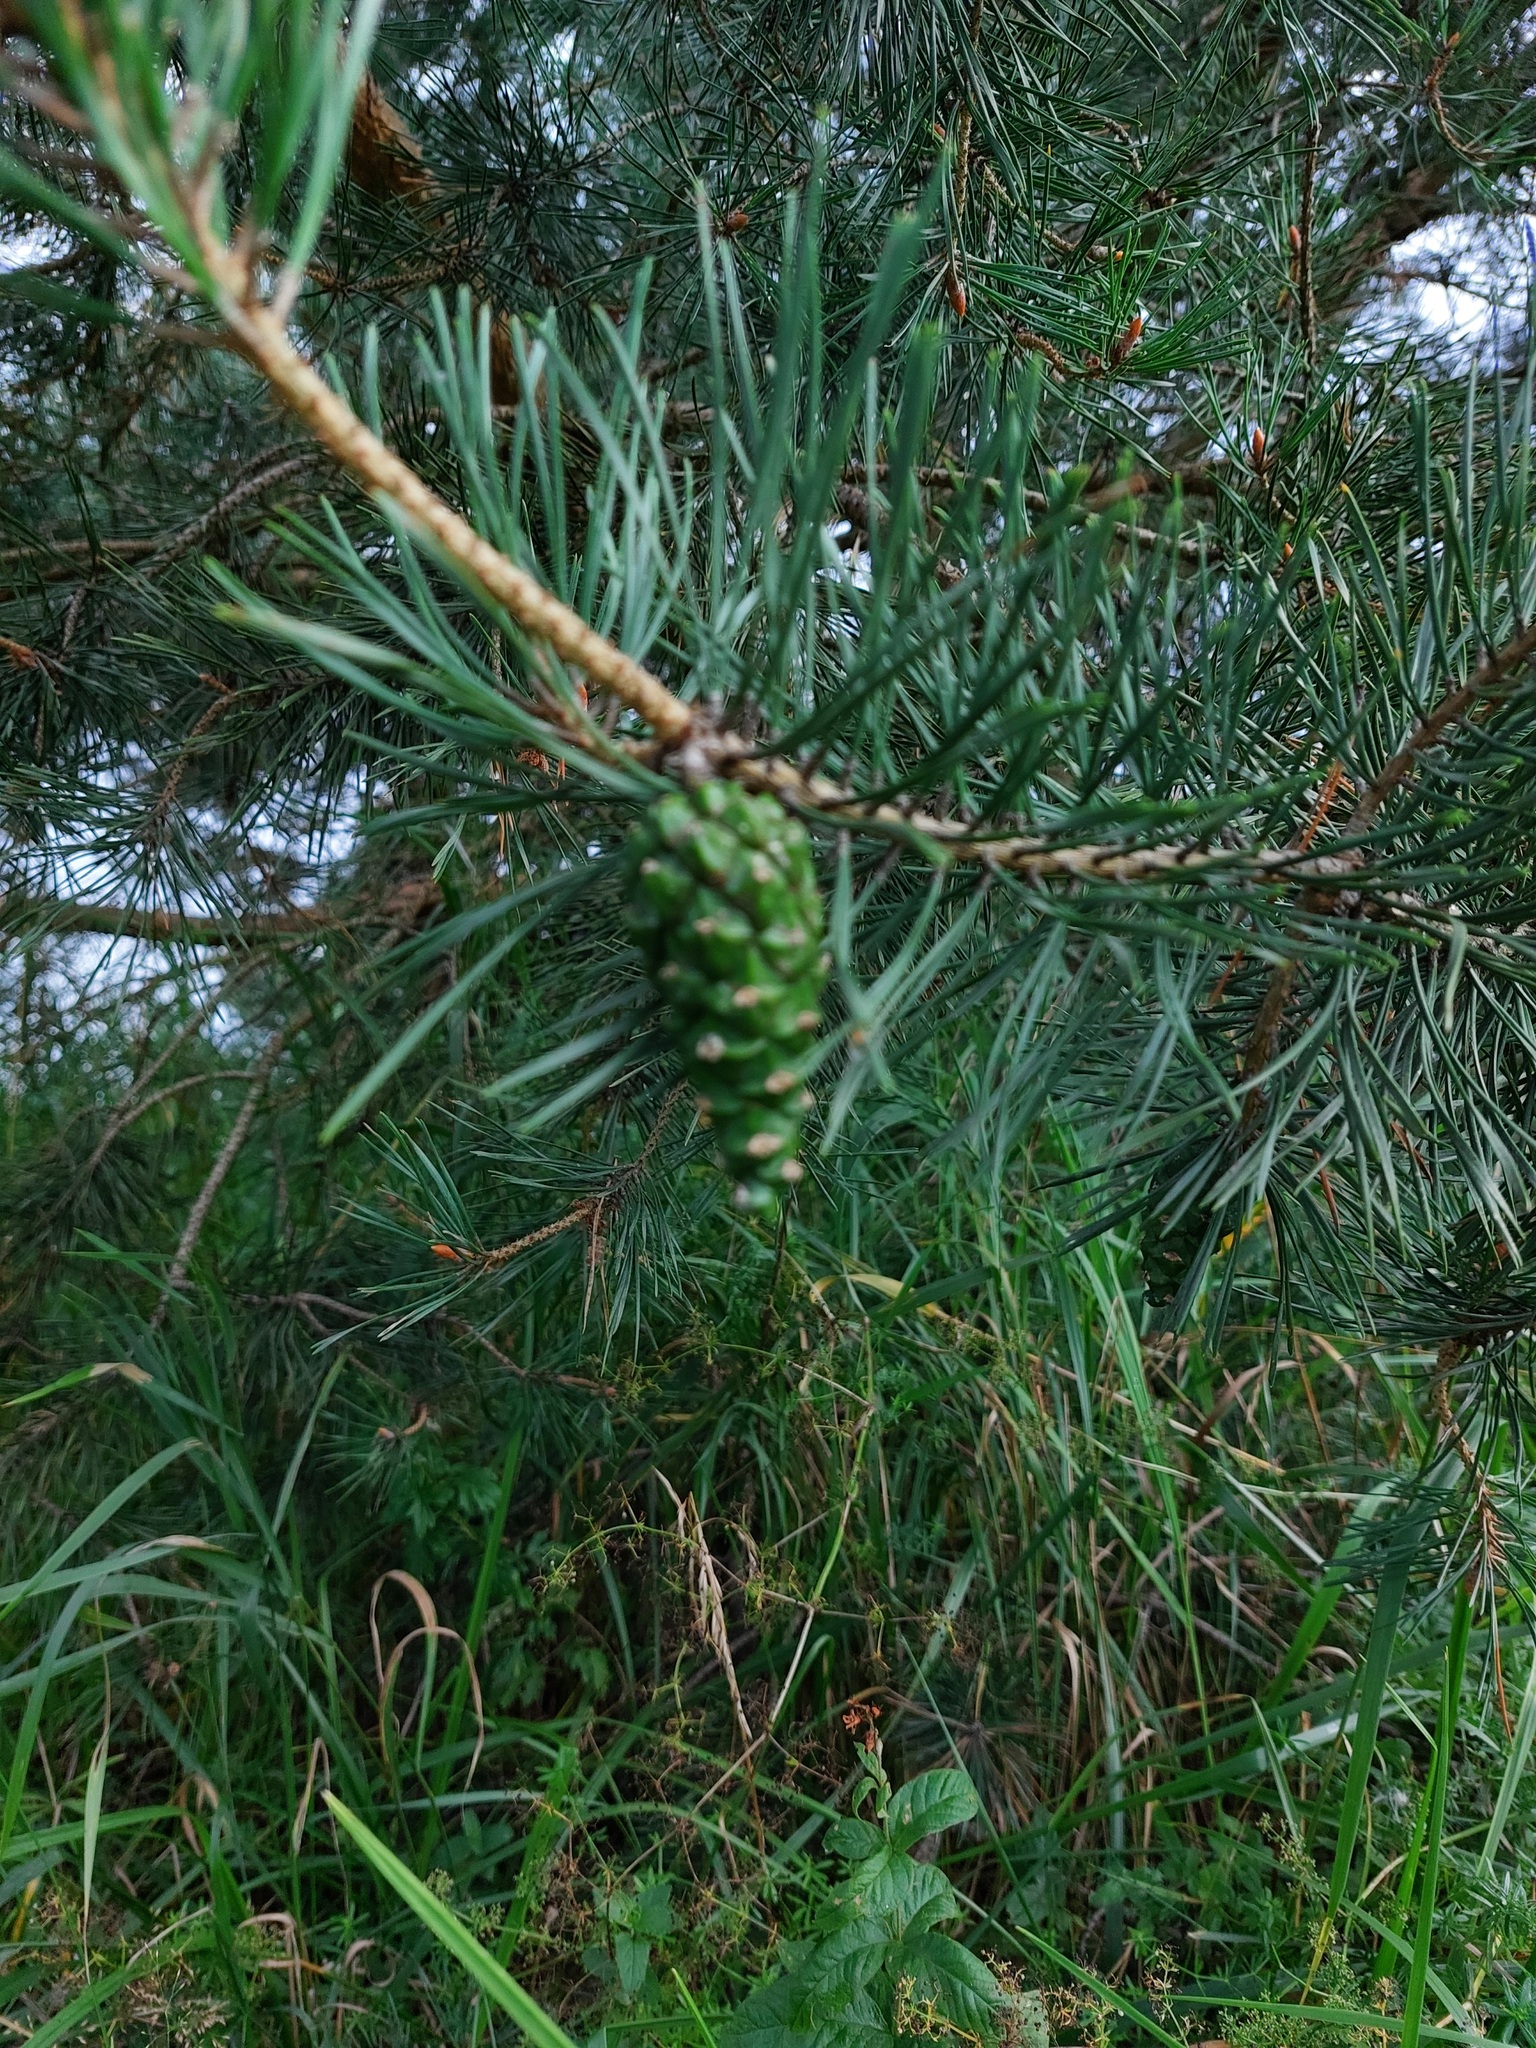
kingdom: Plantae
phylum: Tracheophyta
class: Pinopsida
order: Pinales
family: Pinaceae
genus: Pinus
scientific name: Pinus sylvestris
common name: Scots pine
